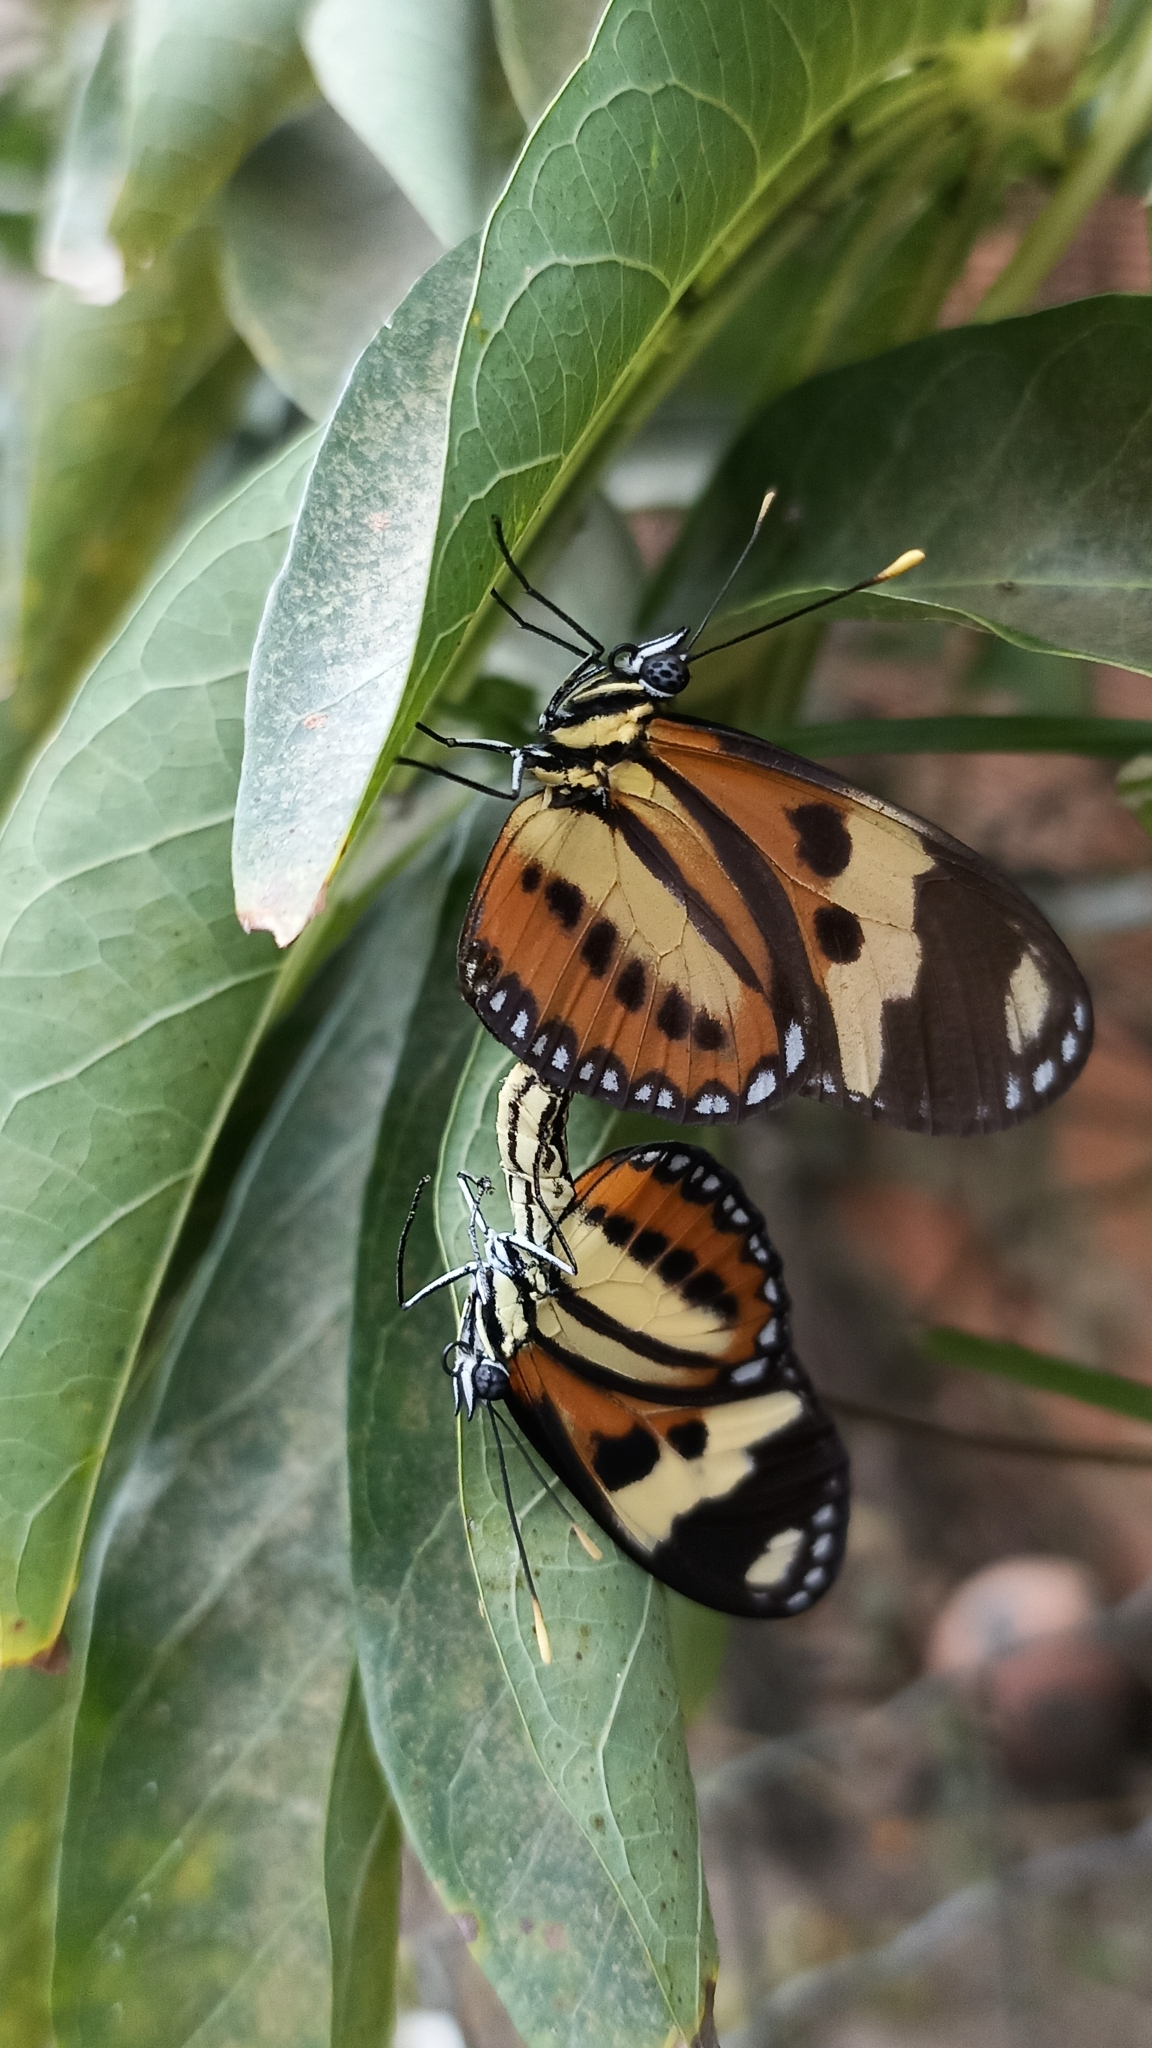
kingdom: Animalia
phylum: Arthropoda
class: Insecta
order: Lepidoptera
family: Nymphalidae
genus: Eueides
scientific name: Eueides isabella
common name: Isabella's longwing
